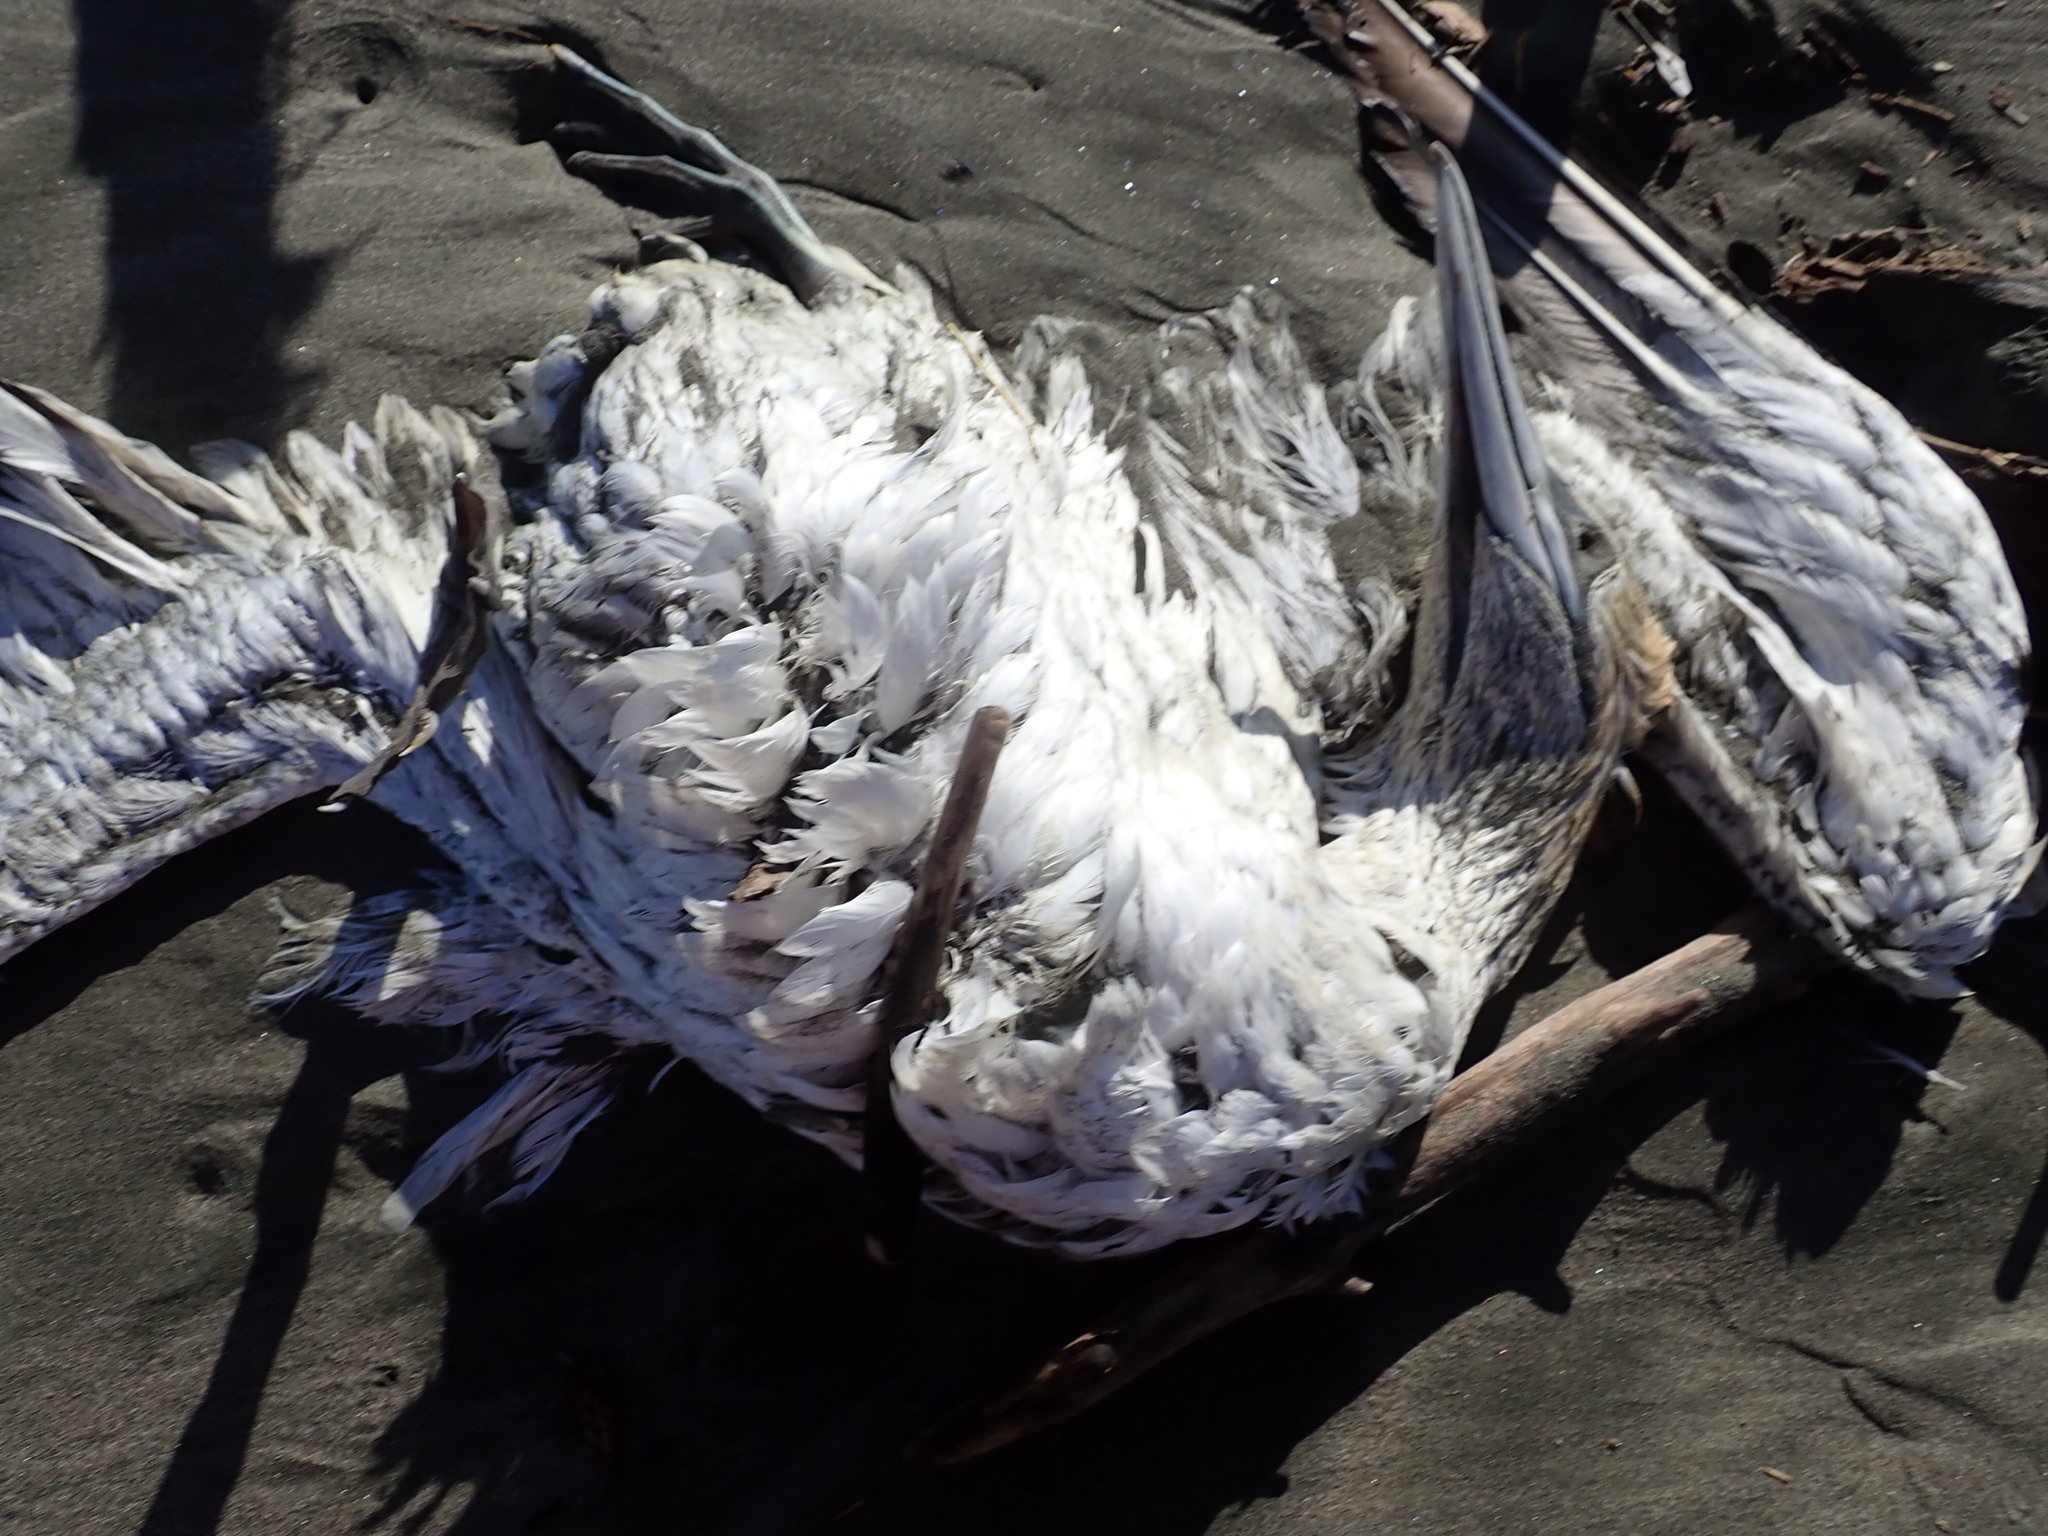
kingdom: Animalia
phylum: Chordata
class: Aves
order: Suliformes
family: Sulidae
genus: Morus
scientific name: Morus serrator
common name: Australasian gannet
